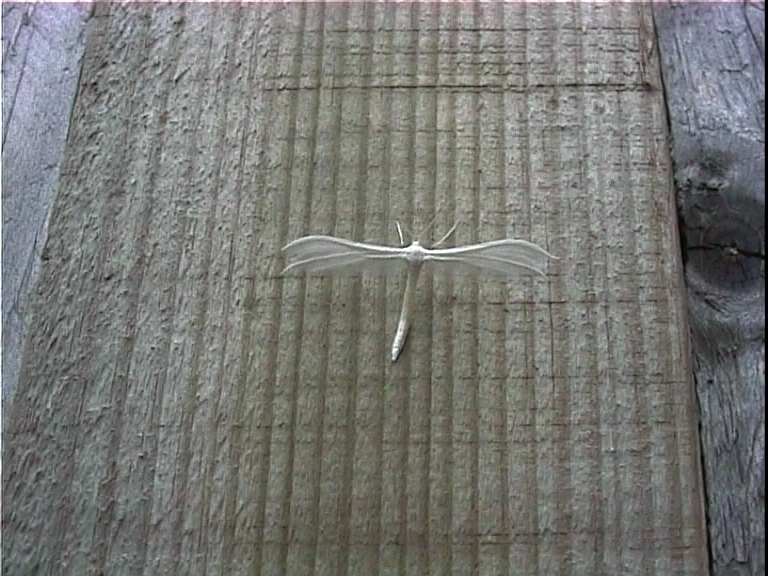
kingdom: Animalia
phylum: Arthropoda
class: Insecta
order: Lepidoptera
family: Pterophoridae
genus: Pterophorus
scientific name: Pterophorus pentadactyla
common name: White plume moth
